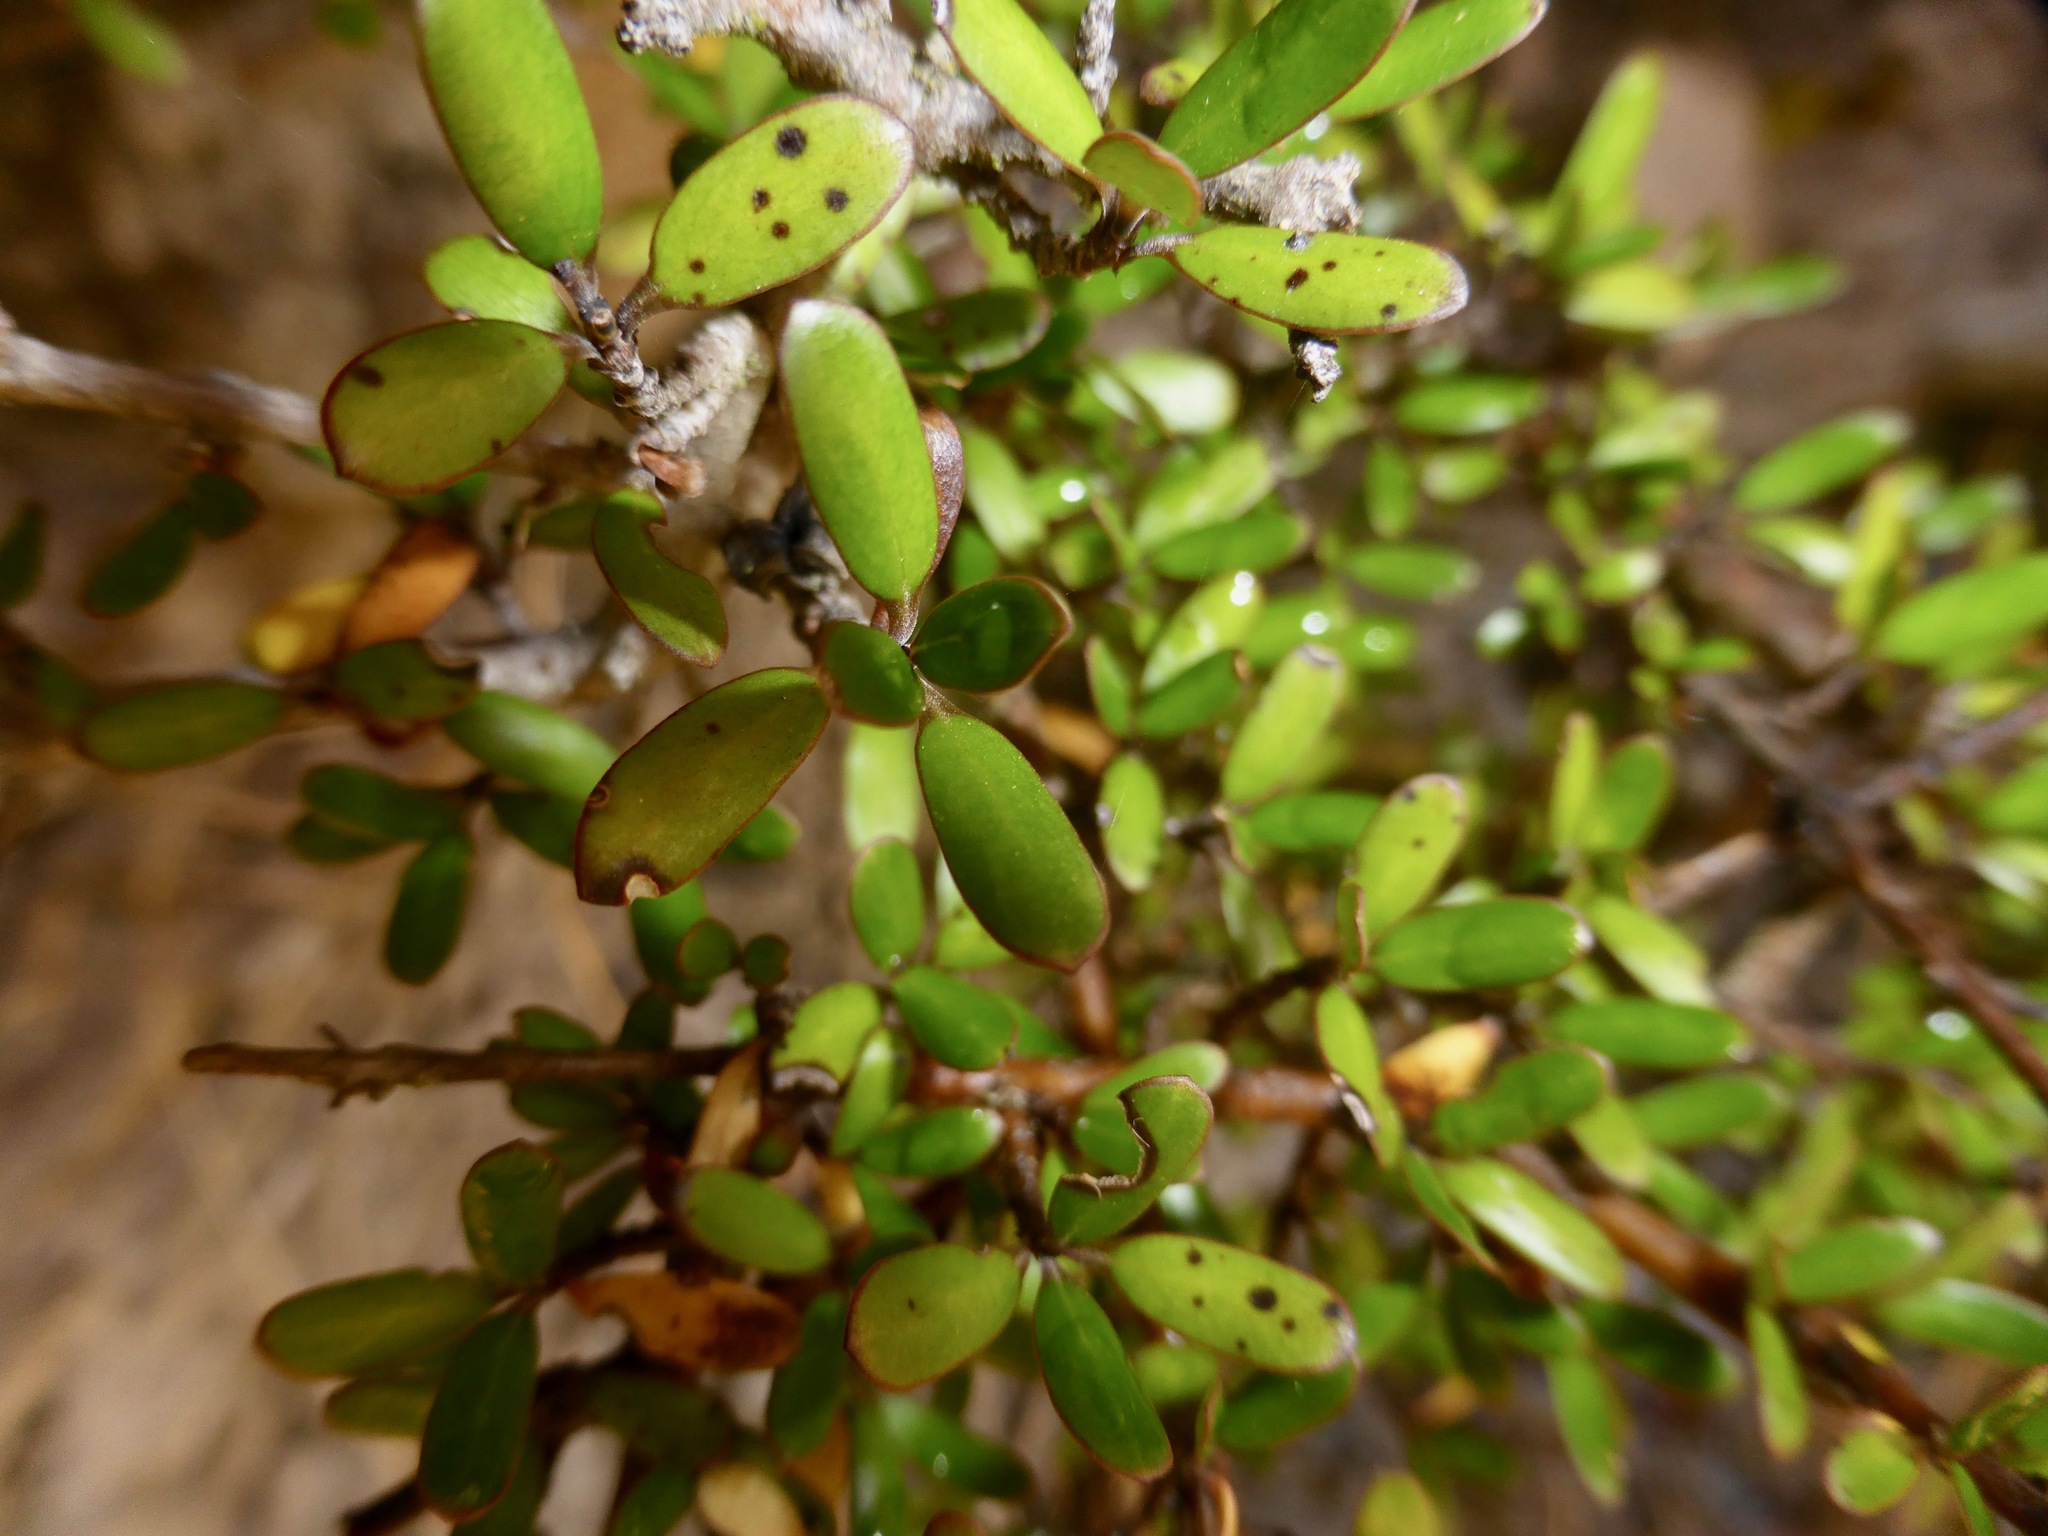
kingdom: Plantae
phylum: Tracheophyta
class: Magnoliopsida
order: Gentianales
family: Rubiaceae
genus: Coprosma
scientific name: Coprosma propinqua
